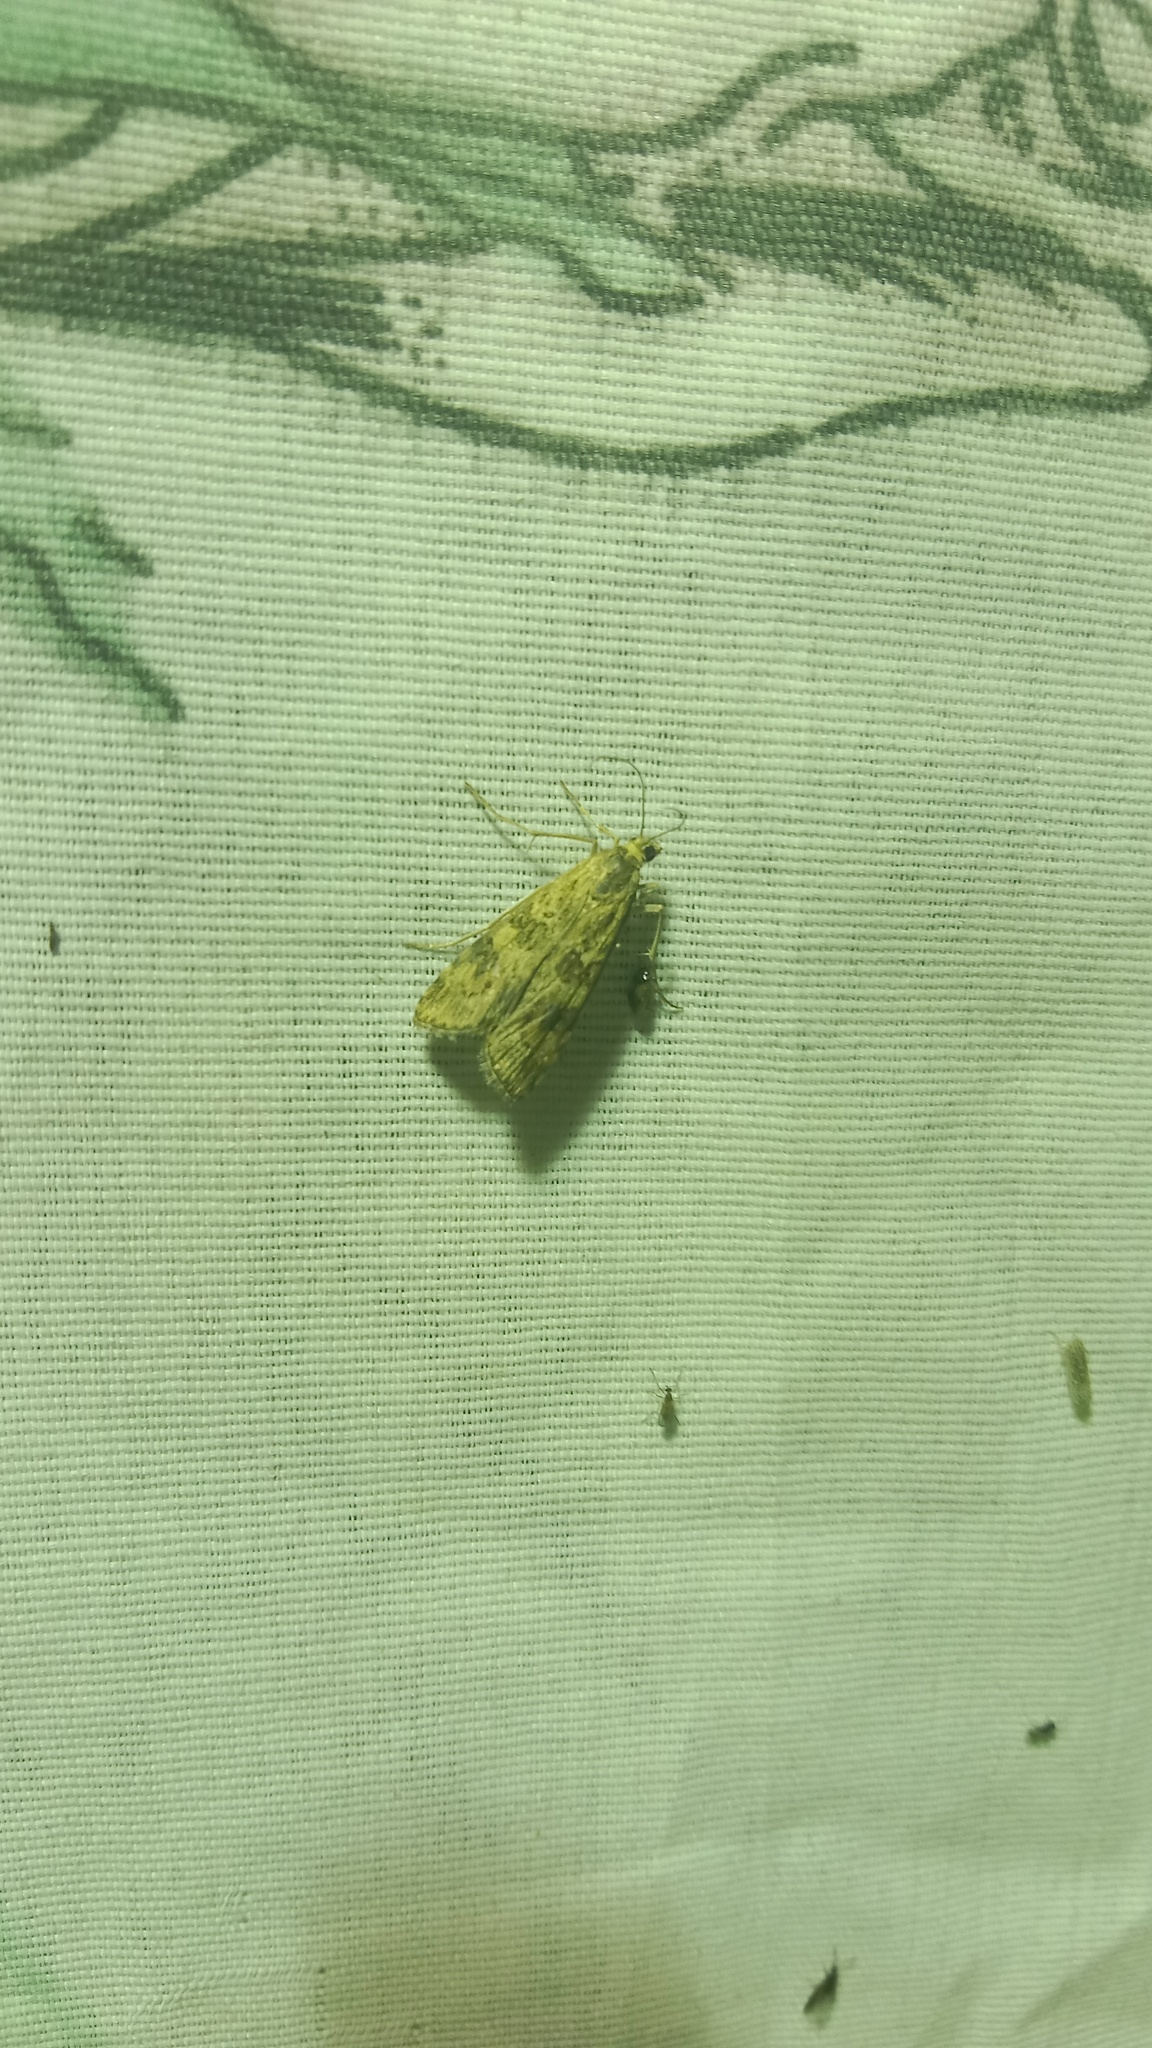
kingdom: Animalia
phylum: Arthropoda
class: Insecta
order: Lepidoptera
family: Crambidae
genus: Nomophila
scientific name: Nomophila noctuella
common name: Rush veneer
